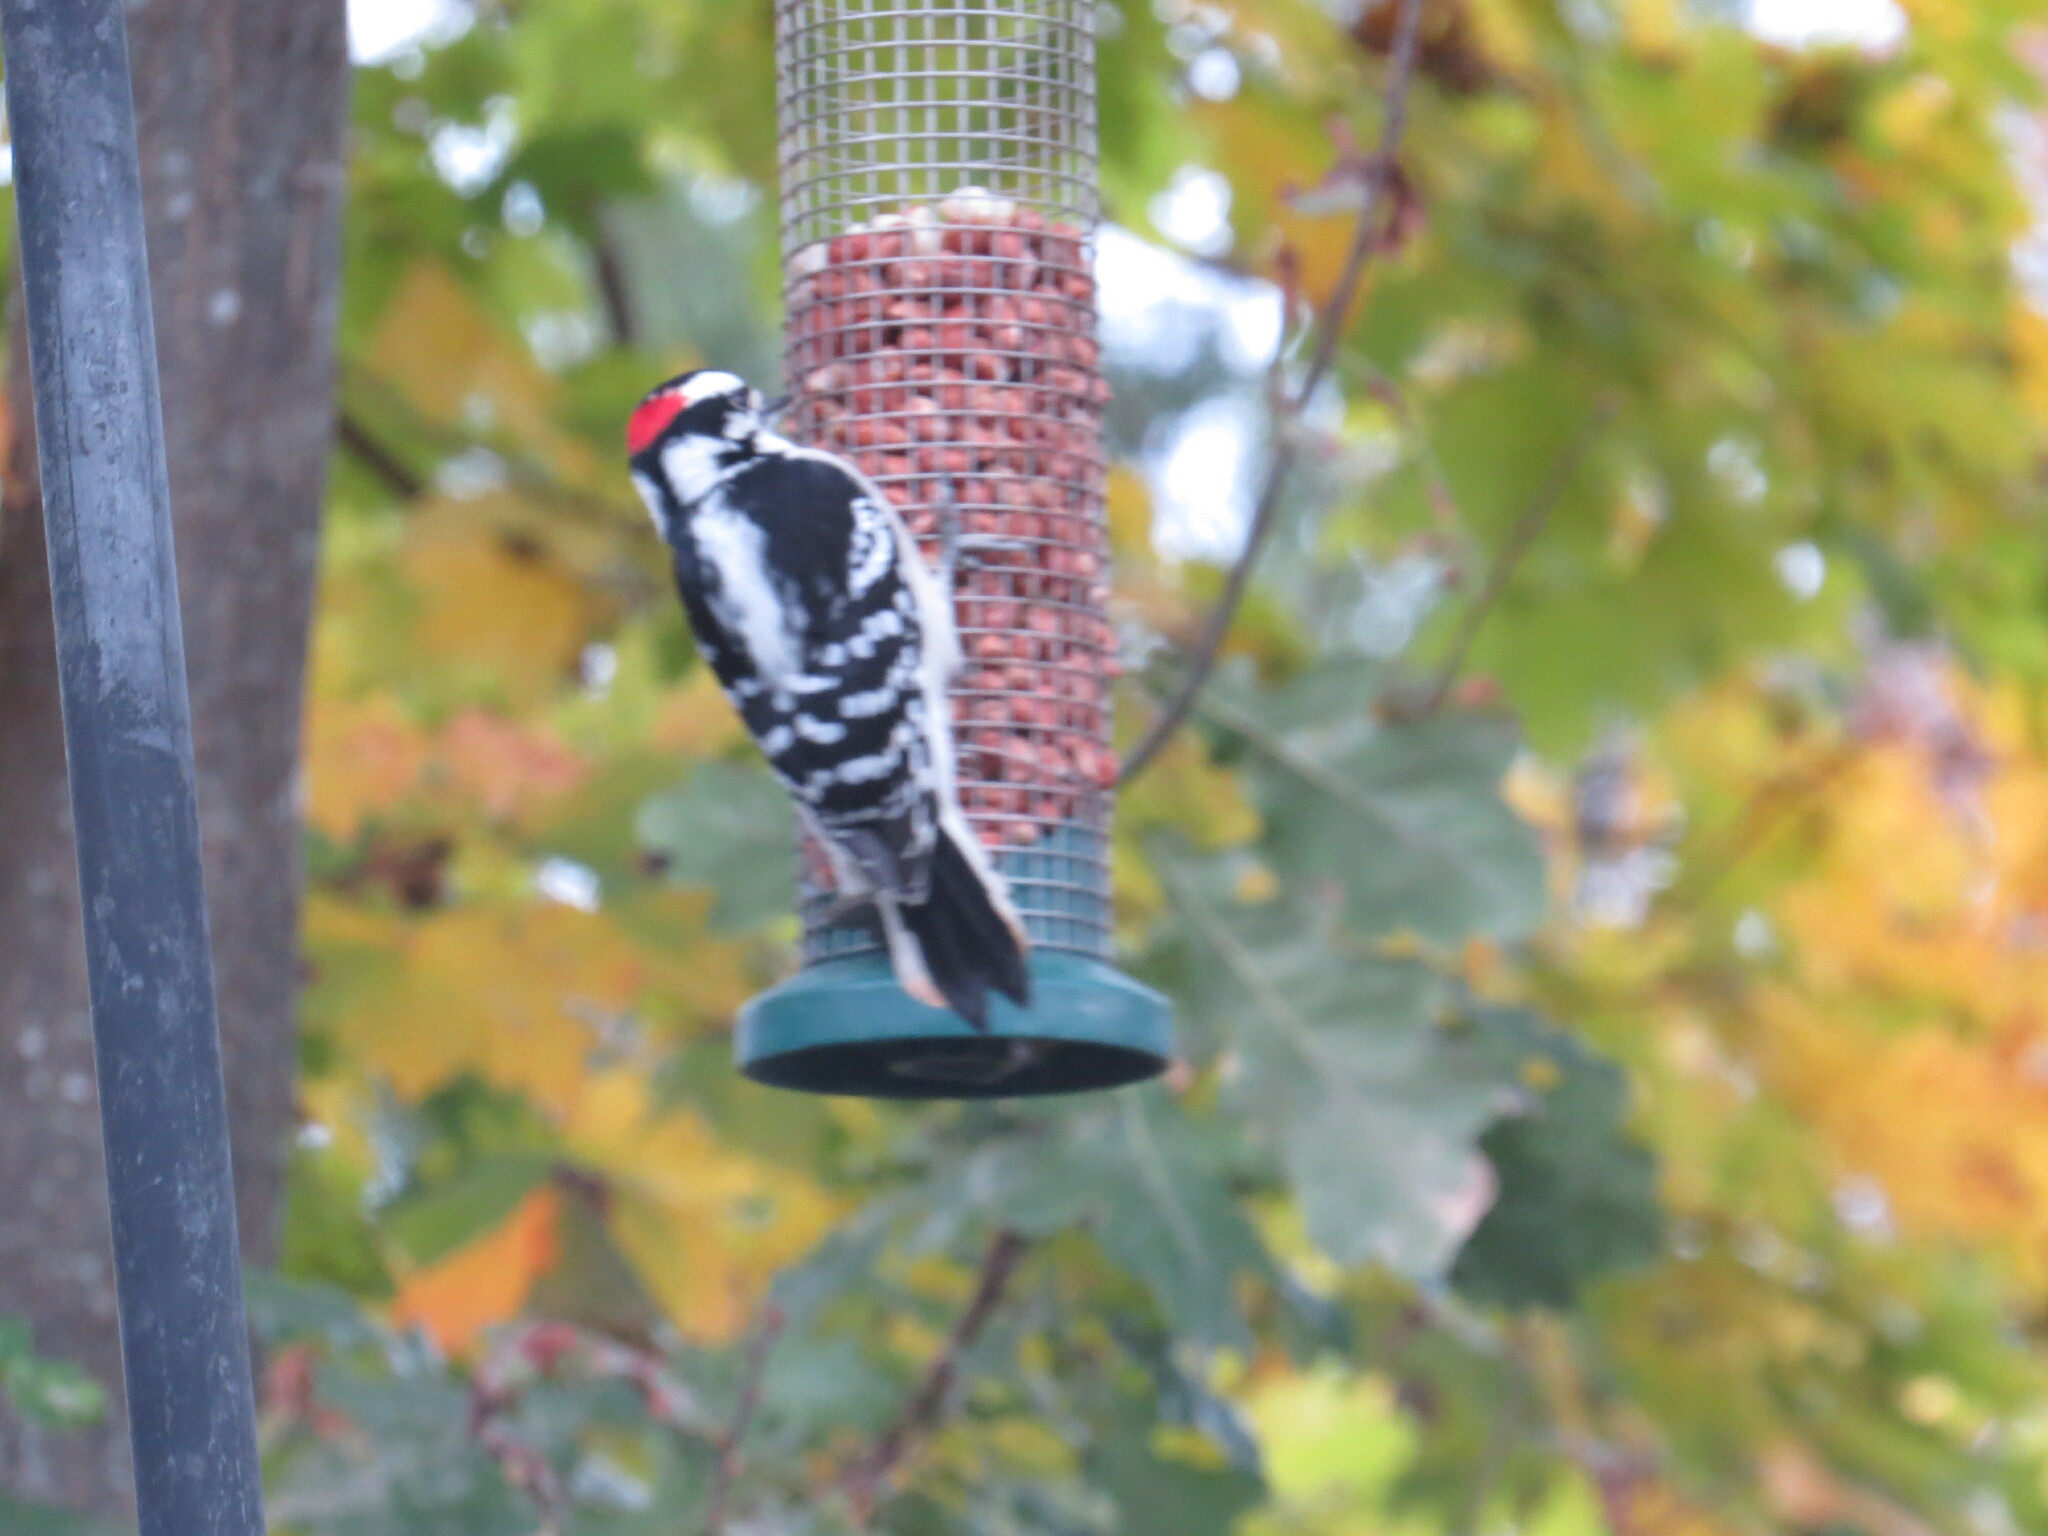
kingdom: Animalia
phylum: Chordata
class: Aves
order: Piciformes
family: Picidae
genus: Dryobates
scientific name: Dryobates pubescens
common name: Downy woodpecker
